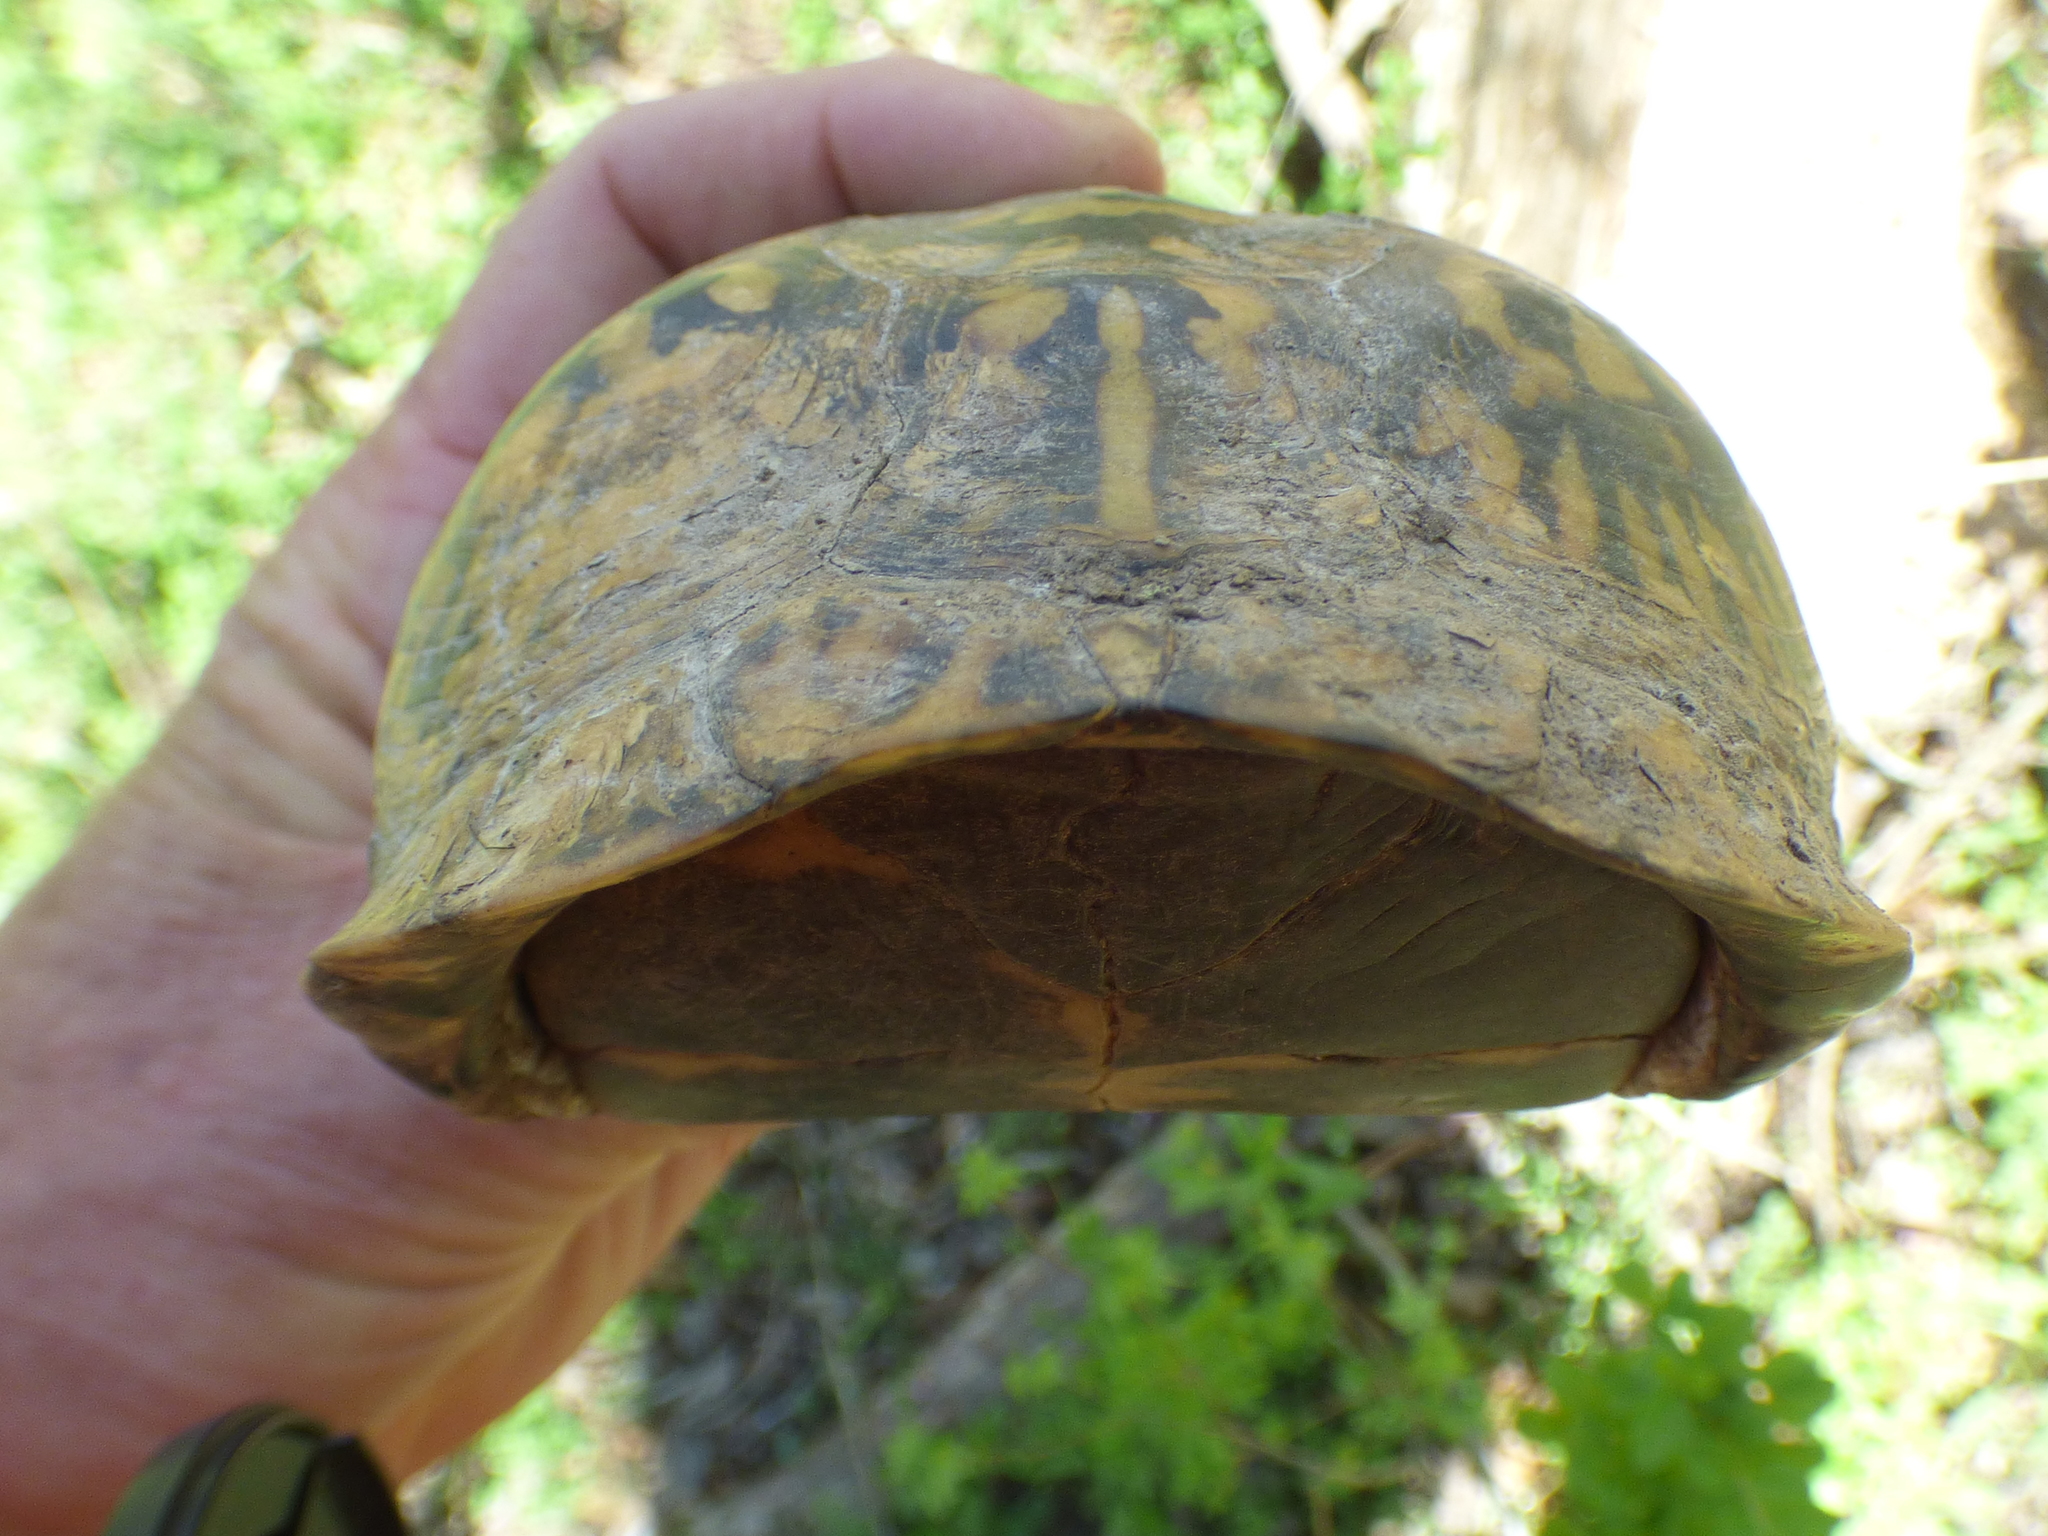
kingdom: Animalia
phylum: Chordata
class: Testudines
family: Emydidae
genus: Terrapene
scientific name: Terrapene carolina
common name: Common box turtle
